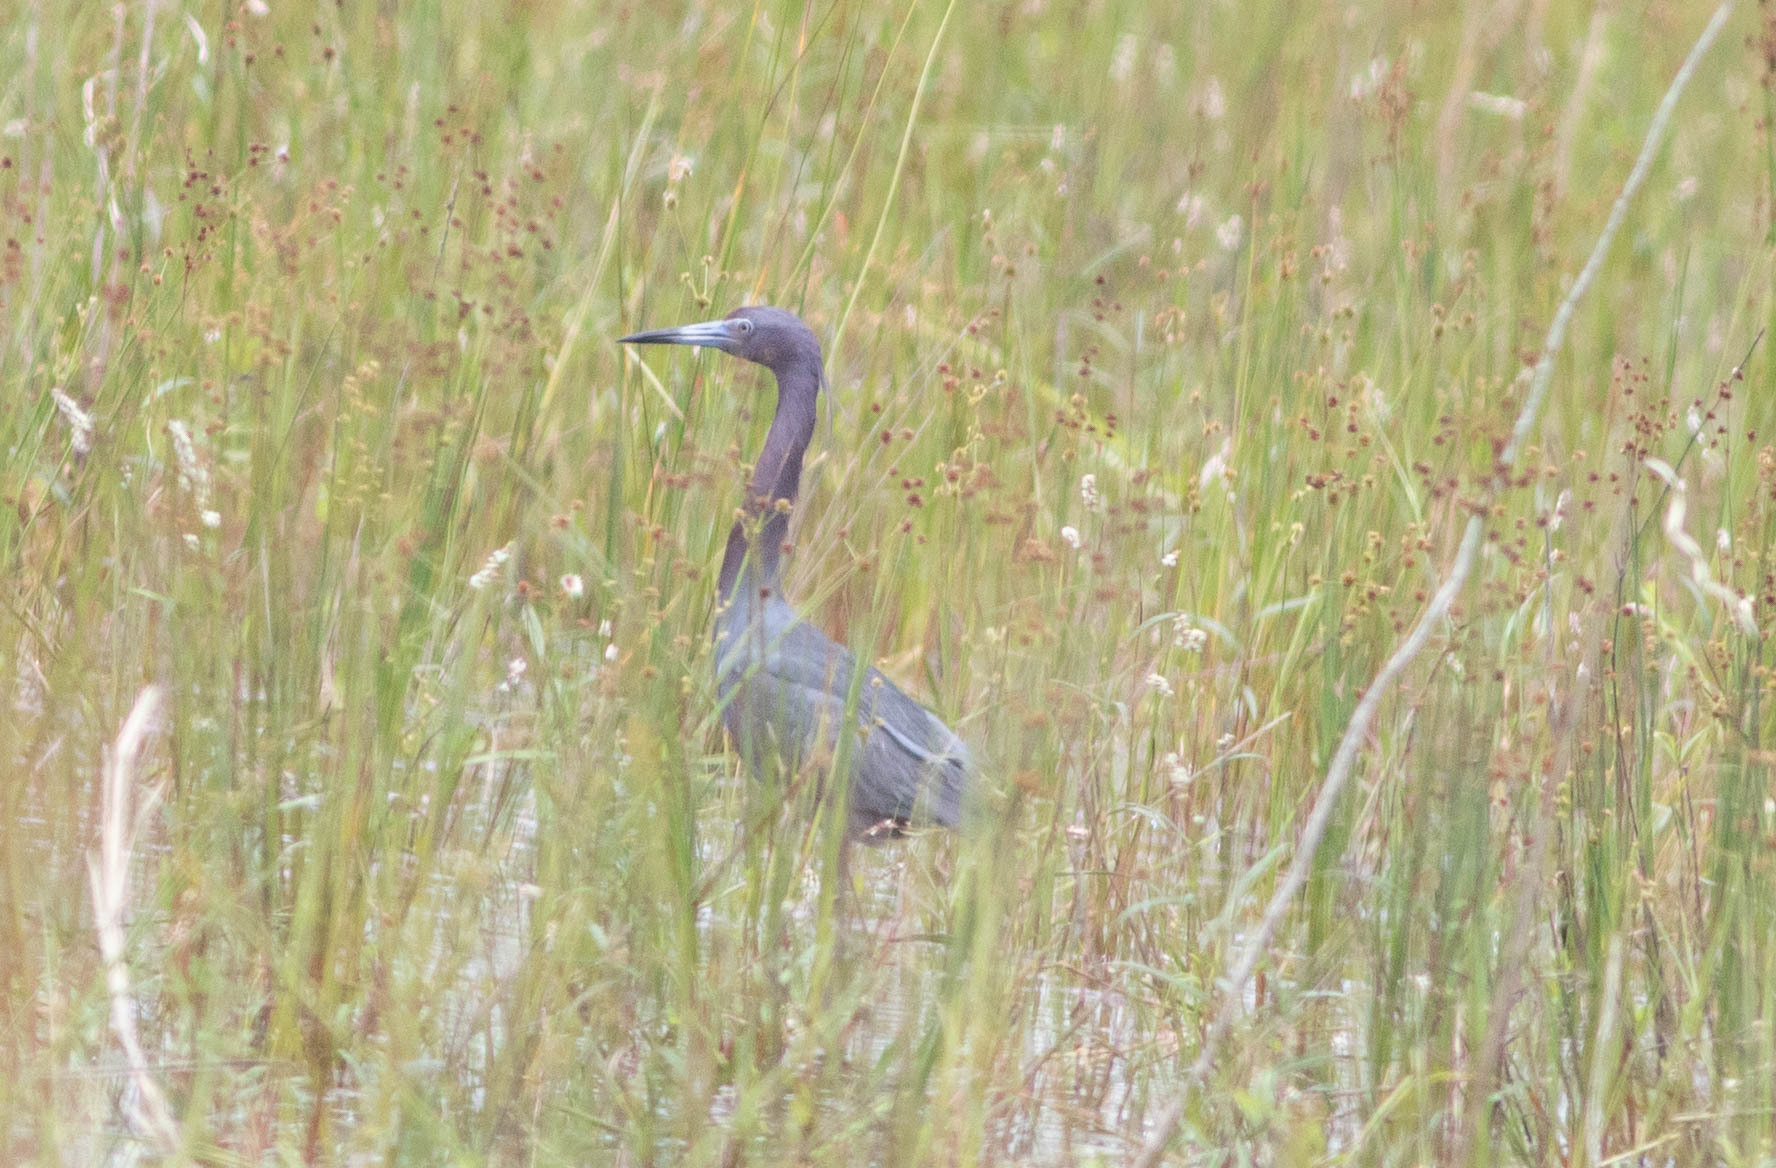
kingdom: Animalia
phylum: Chordata
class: Aves
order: Pelecaniformes
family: Ardeidae
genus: Egretta
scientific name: Egretta caerulea
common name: Little blue heron
